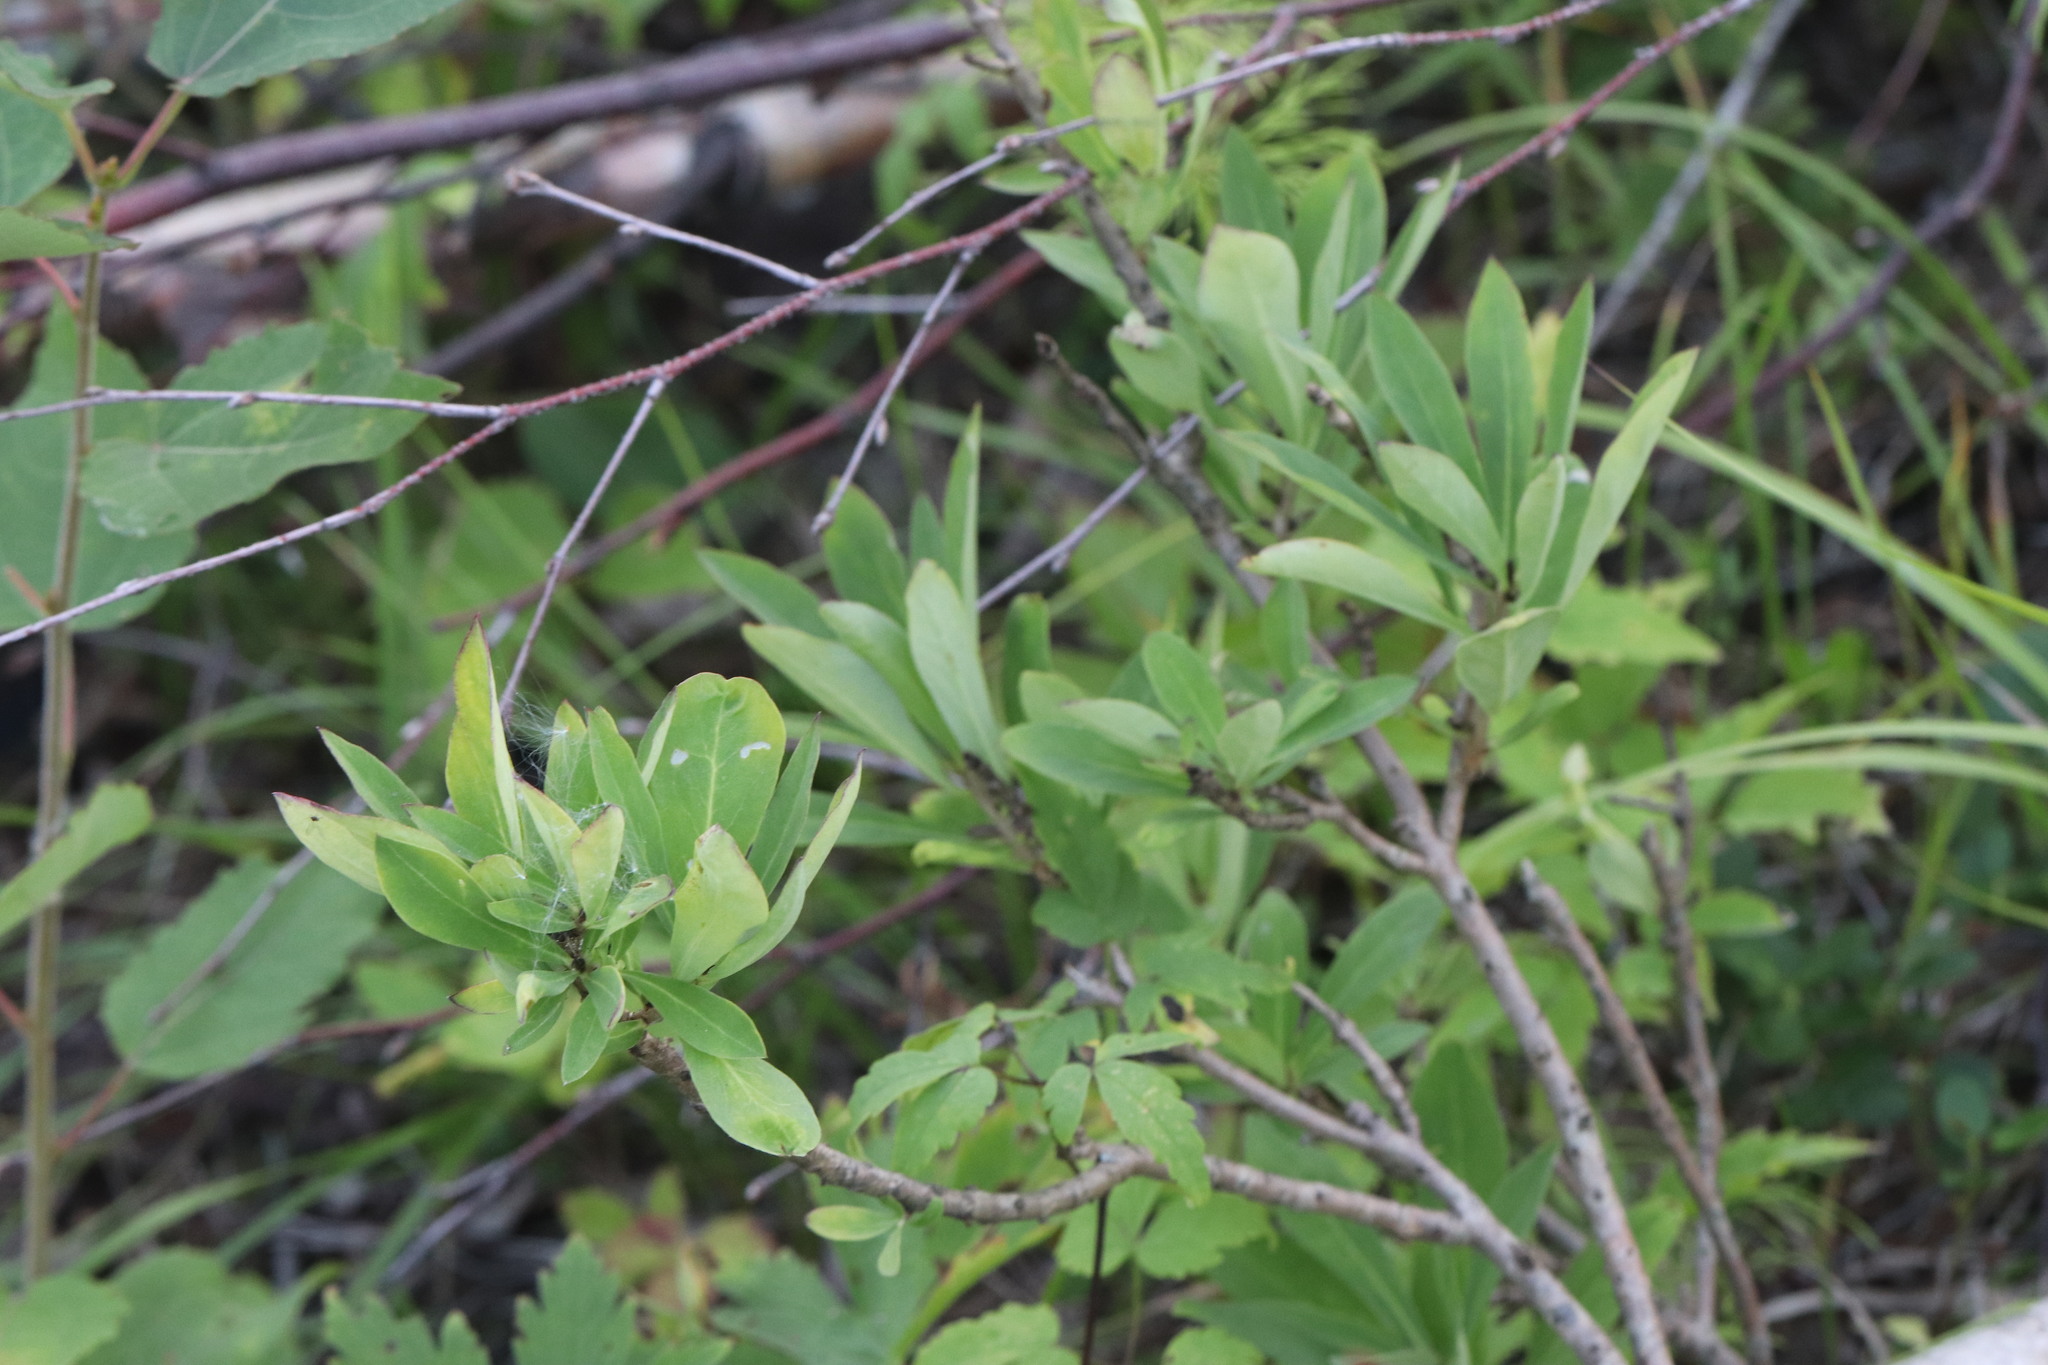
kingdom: Plantae
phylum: Tracheophyta
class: Magnoliopsida
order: Malvales
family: Thymelaeaceae
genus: Daphne
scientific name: Daphne mezereum
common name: Mezereon
